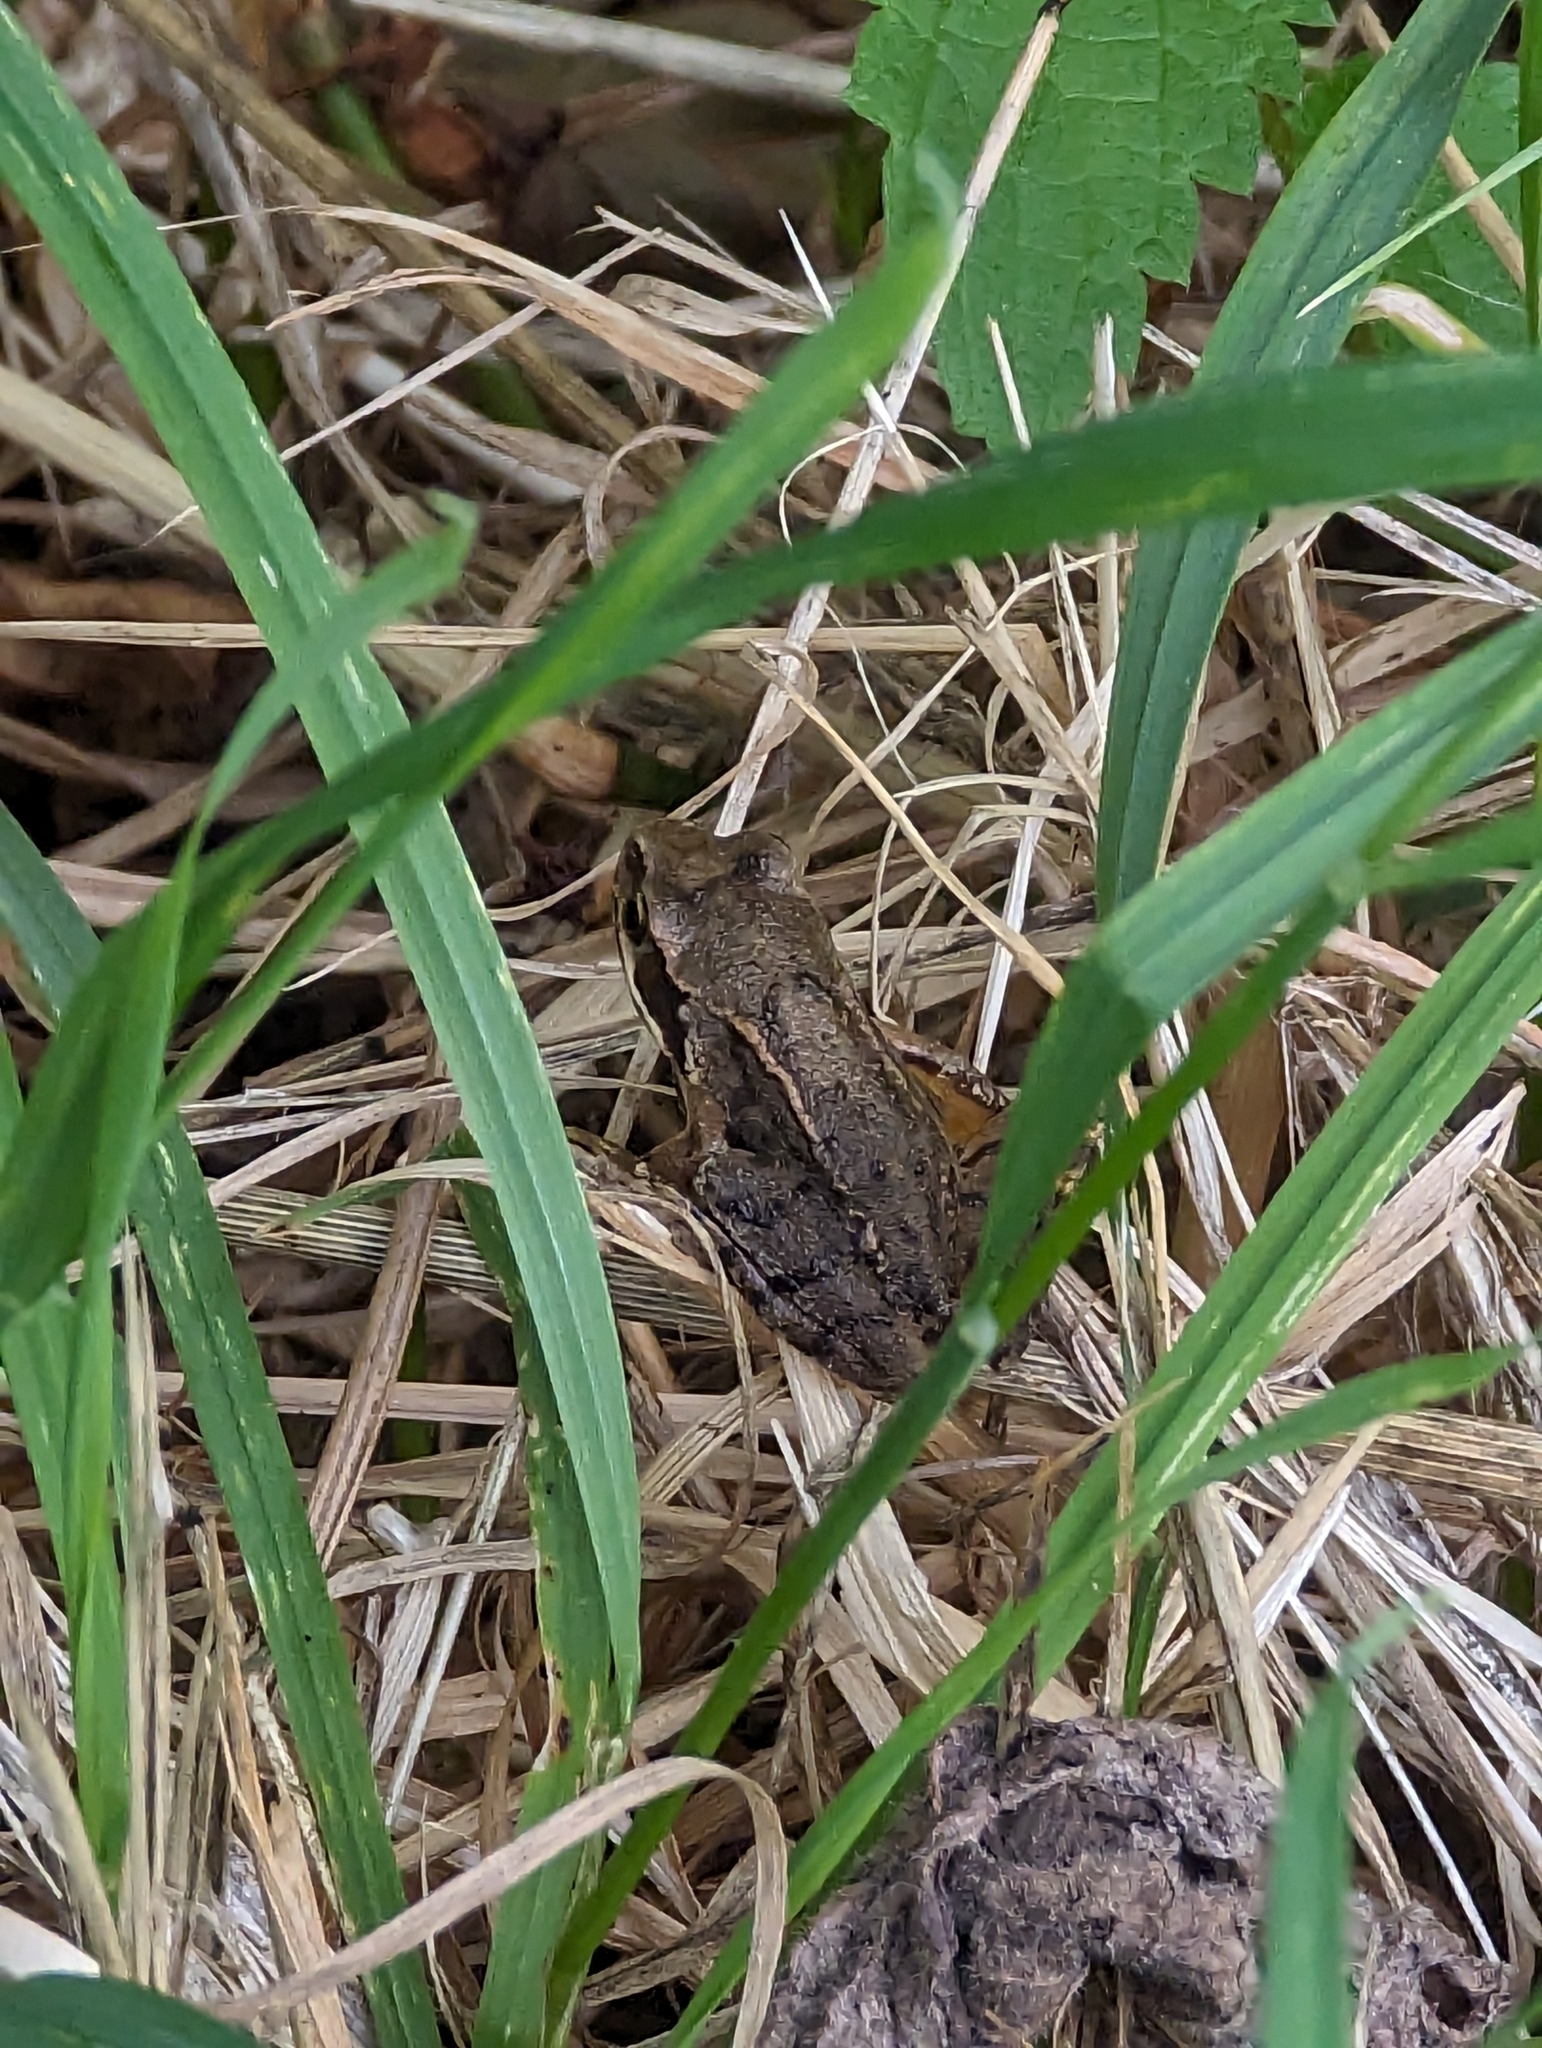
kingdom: Animalia
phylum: Chordata
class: Amphibia
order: Anura
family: Ranidae
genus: Rana
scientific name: Rana temporaria
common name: Common frog
